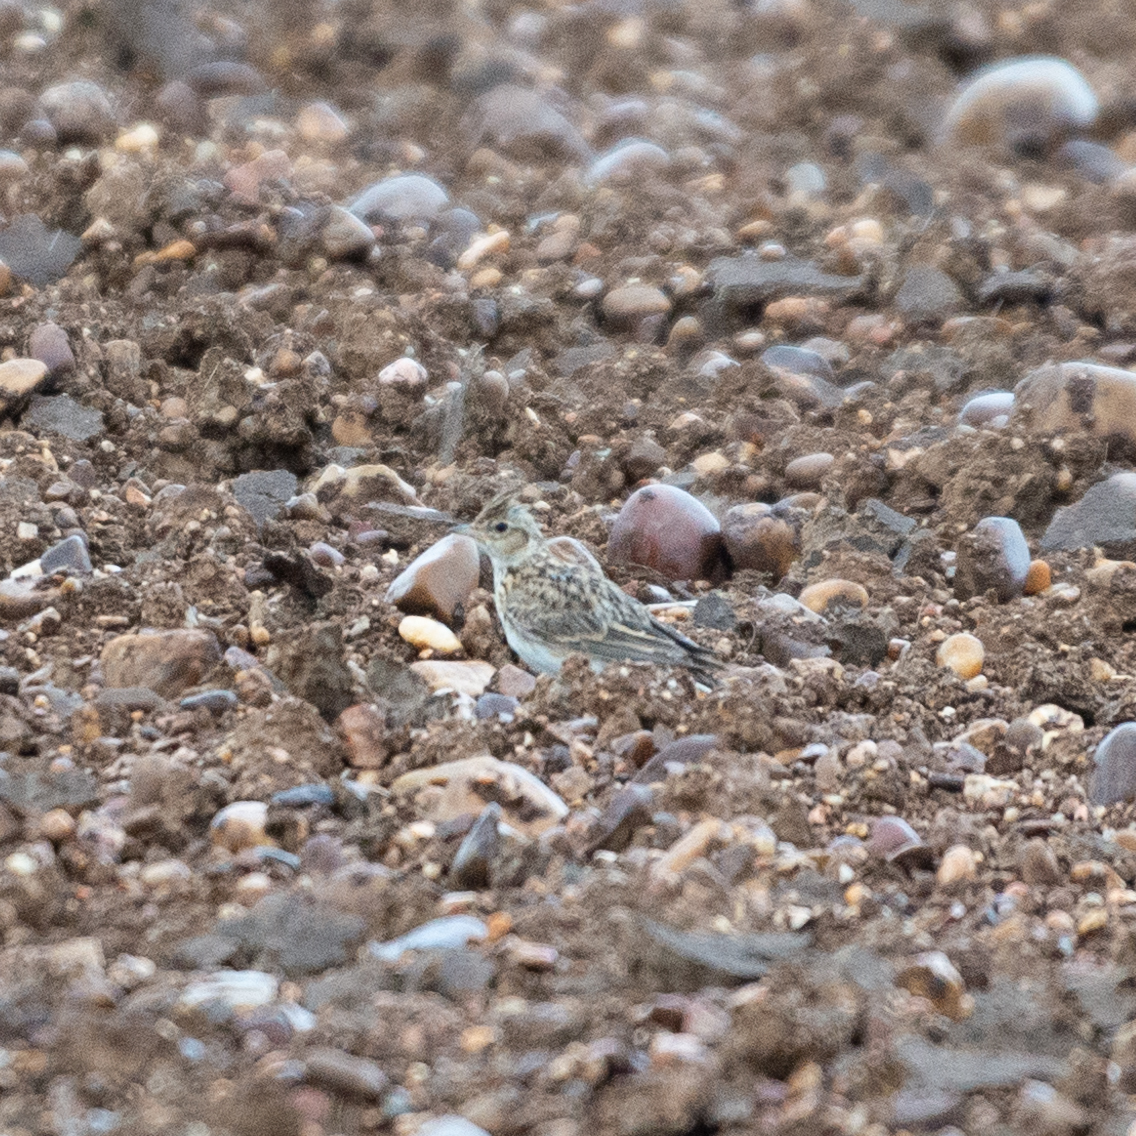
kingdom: Animalia
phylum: Chordata
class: Aves
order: Passeriformes
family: Alaudidae
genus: Alauda
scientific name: Alauda arvensis
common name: Eurasian skylark
